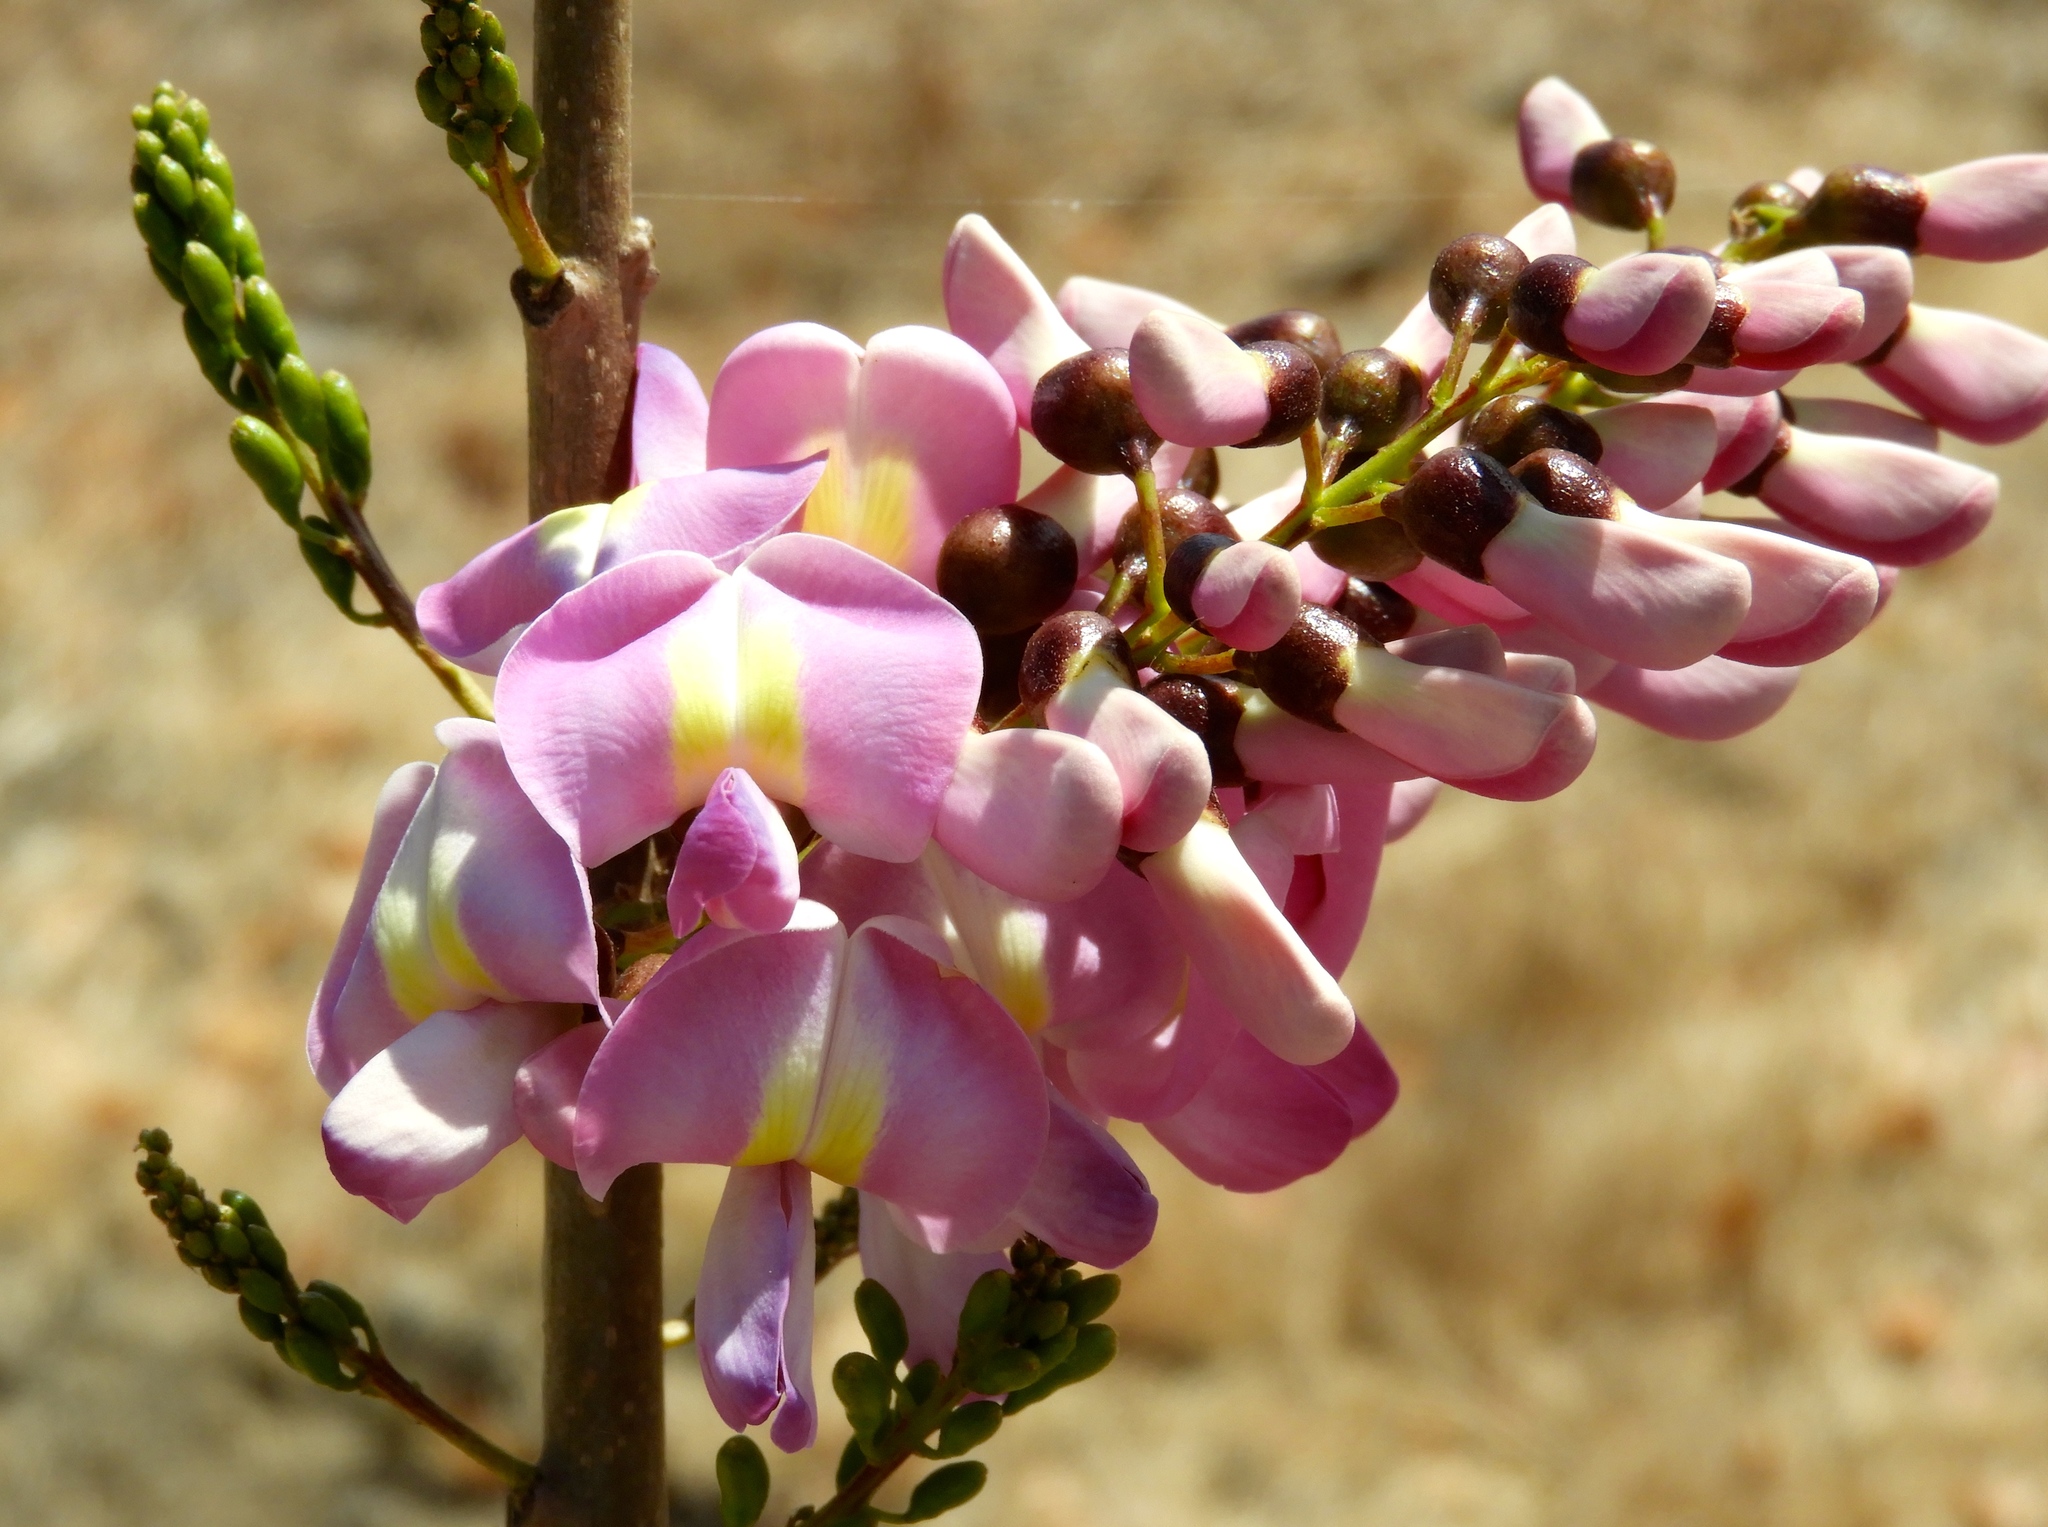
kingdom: Plantae
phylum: Tracheophyta
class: Magnoliopsida
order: Fabales
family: Fabaceae
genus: Gliricidia
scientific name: Gliricidia sepium
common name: Quickstick
